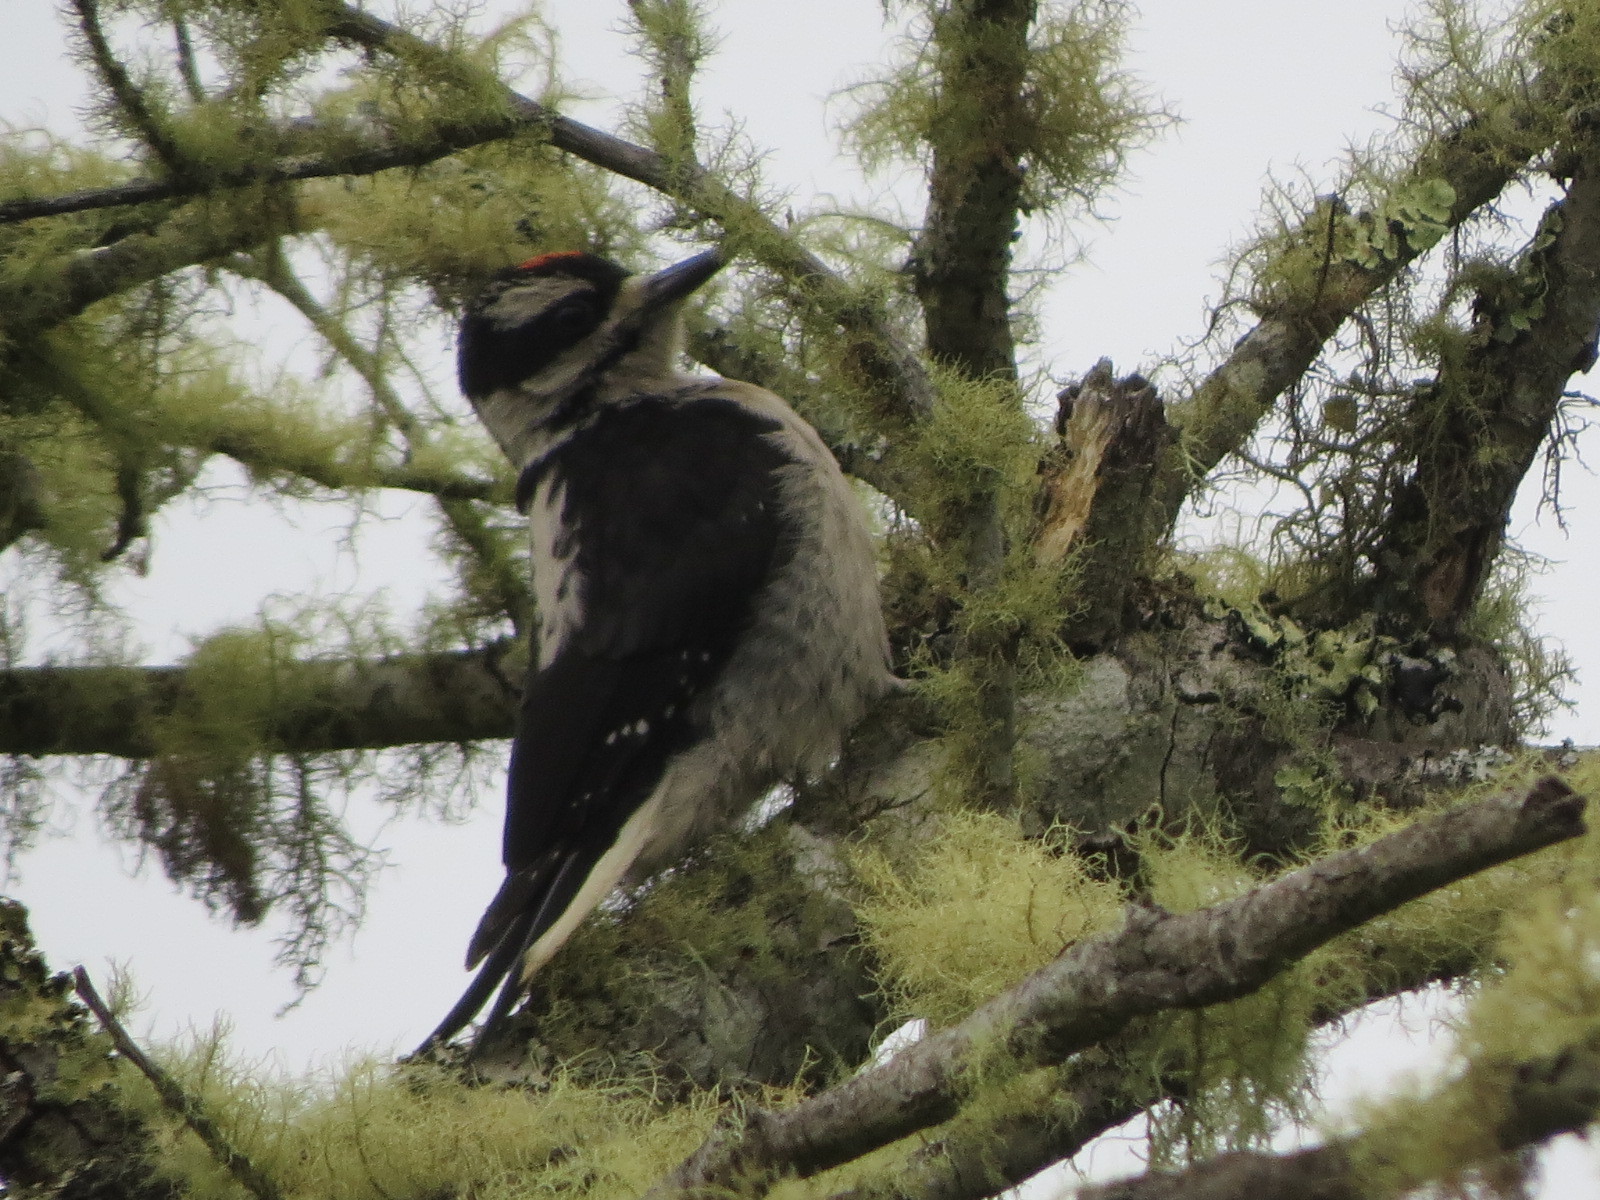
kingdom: Animalia
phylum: Chordata
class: Aves
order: Piciformes
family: Picidae
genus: Leuconotopicus
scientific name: Leuconotopicus villosus
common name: Hairy woodpecker
